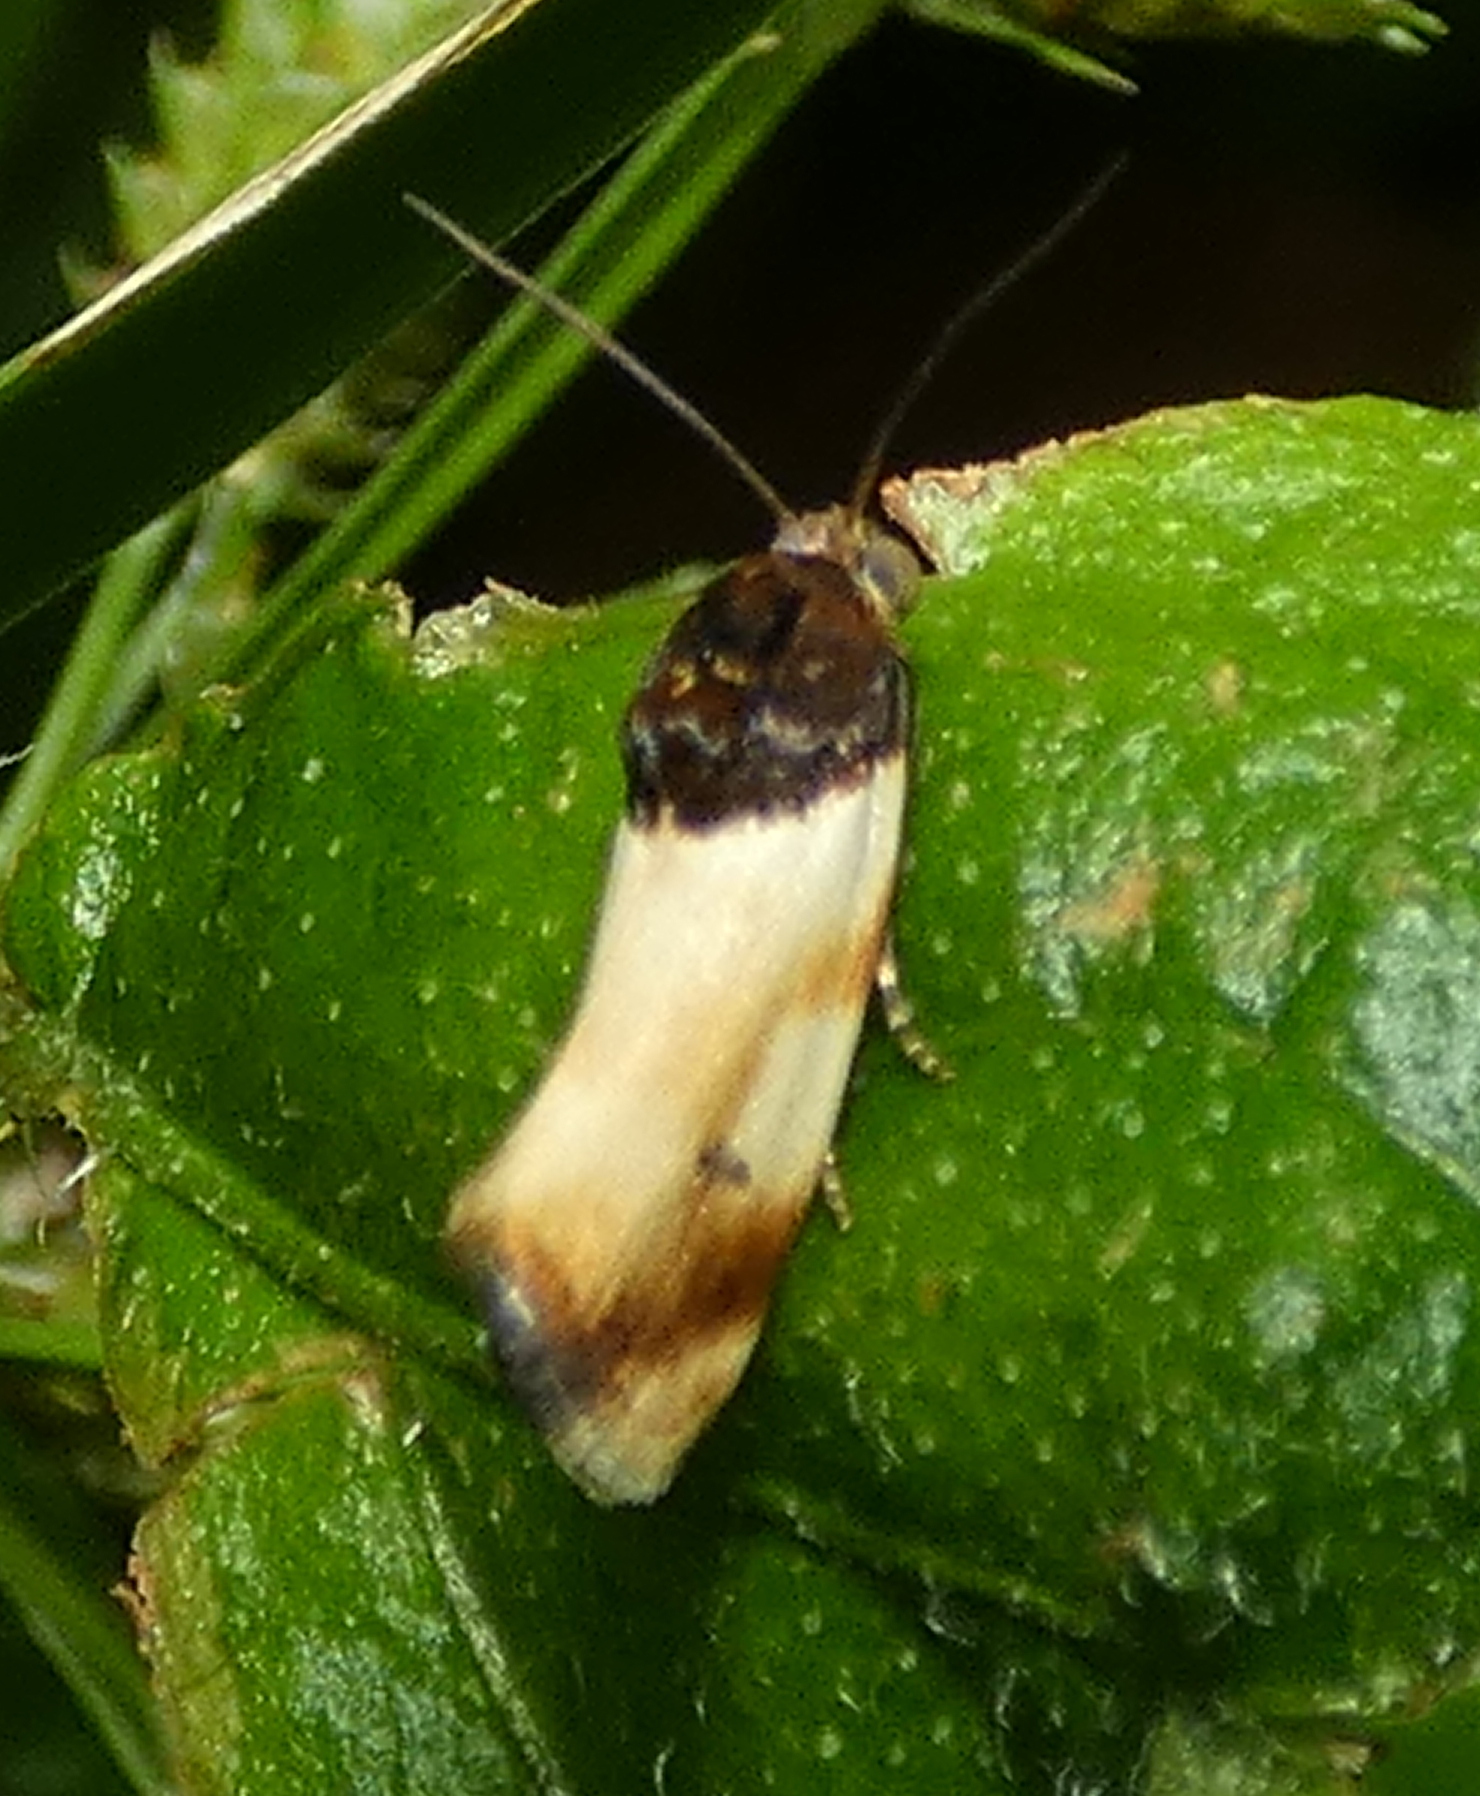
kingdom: Animalia
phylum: Arthropoda
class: Insecta
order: Lepidoptera
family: Noctuidae
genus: Spragueia
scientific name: Spragueia apicalis
